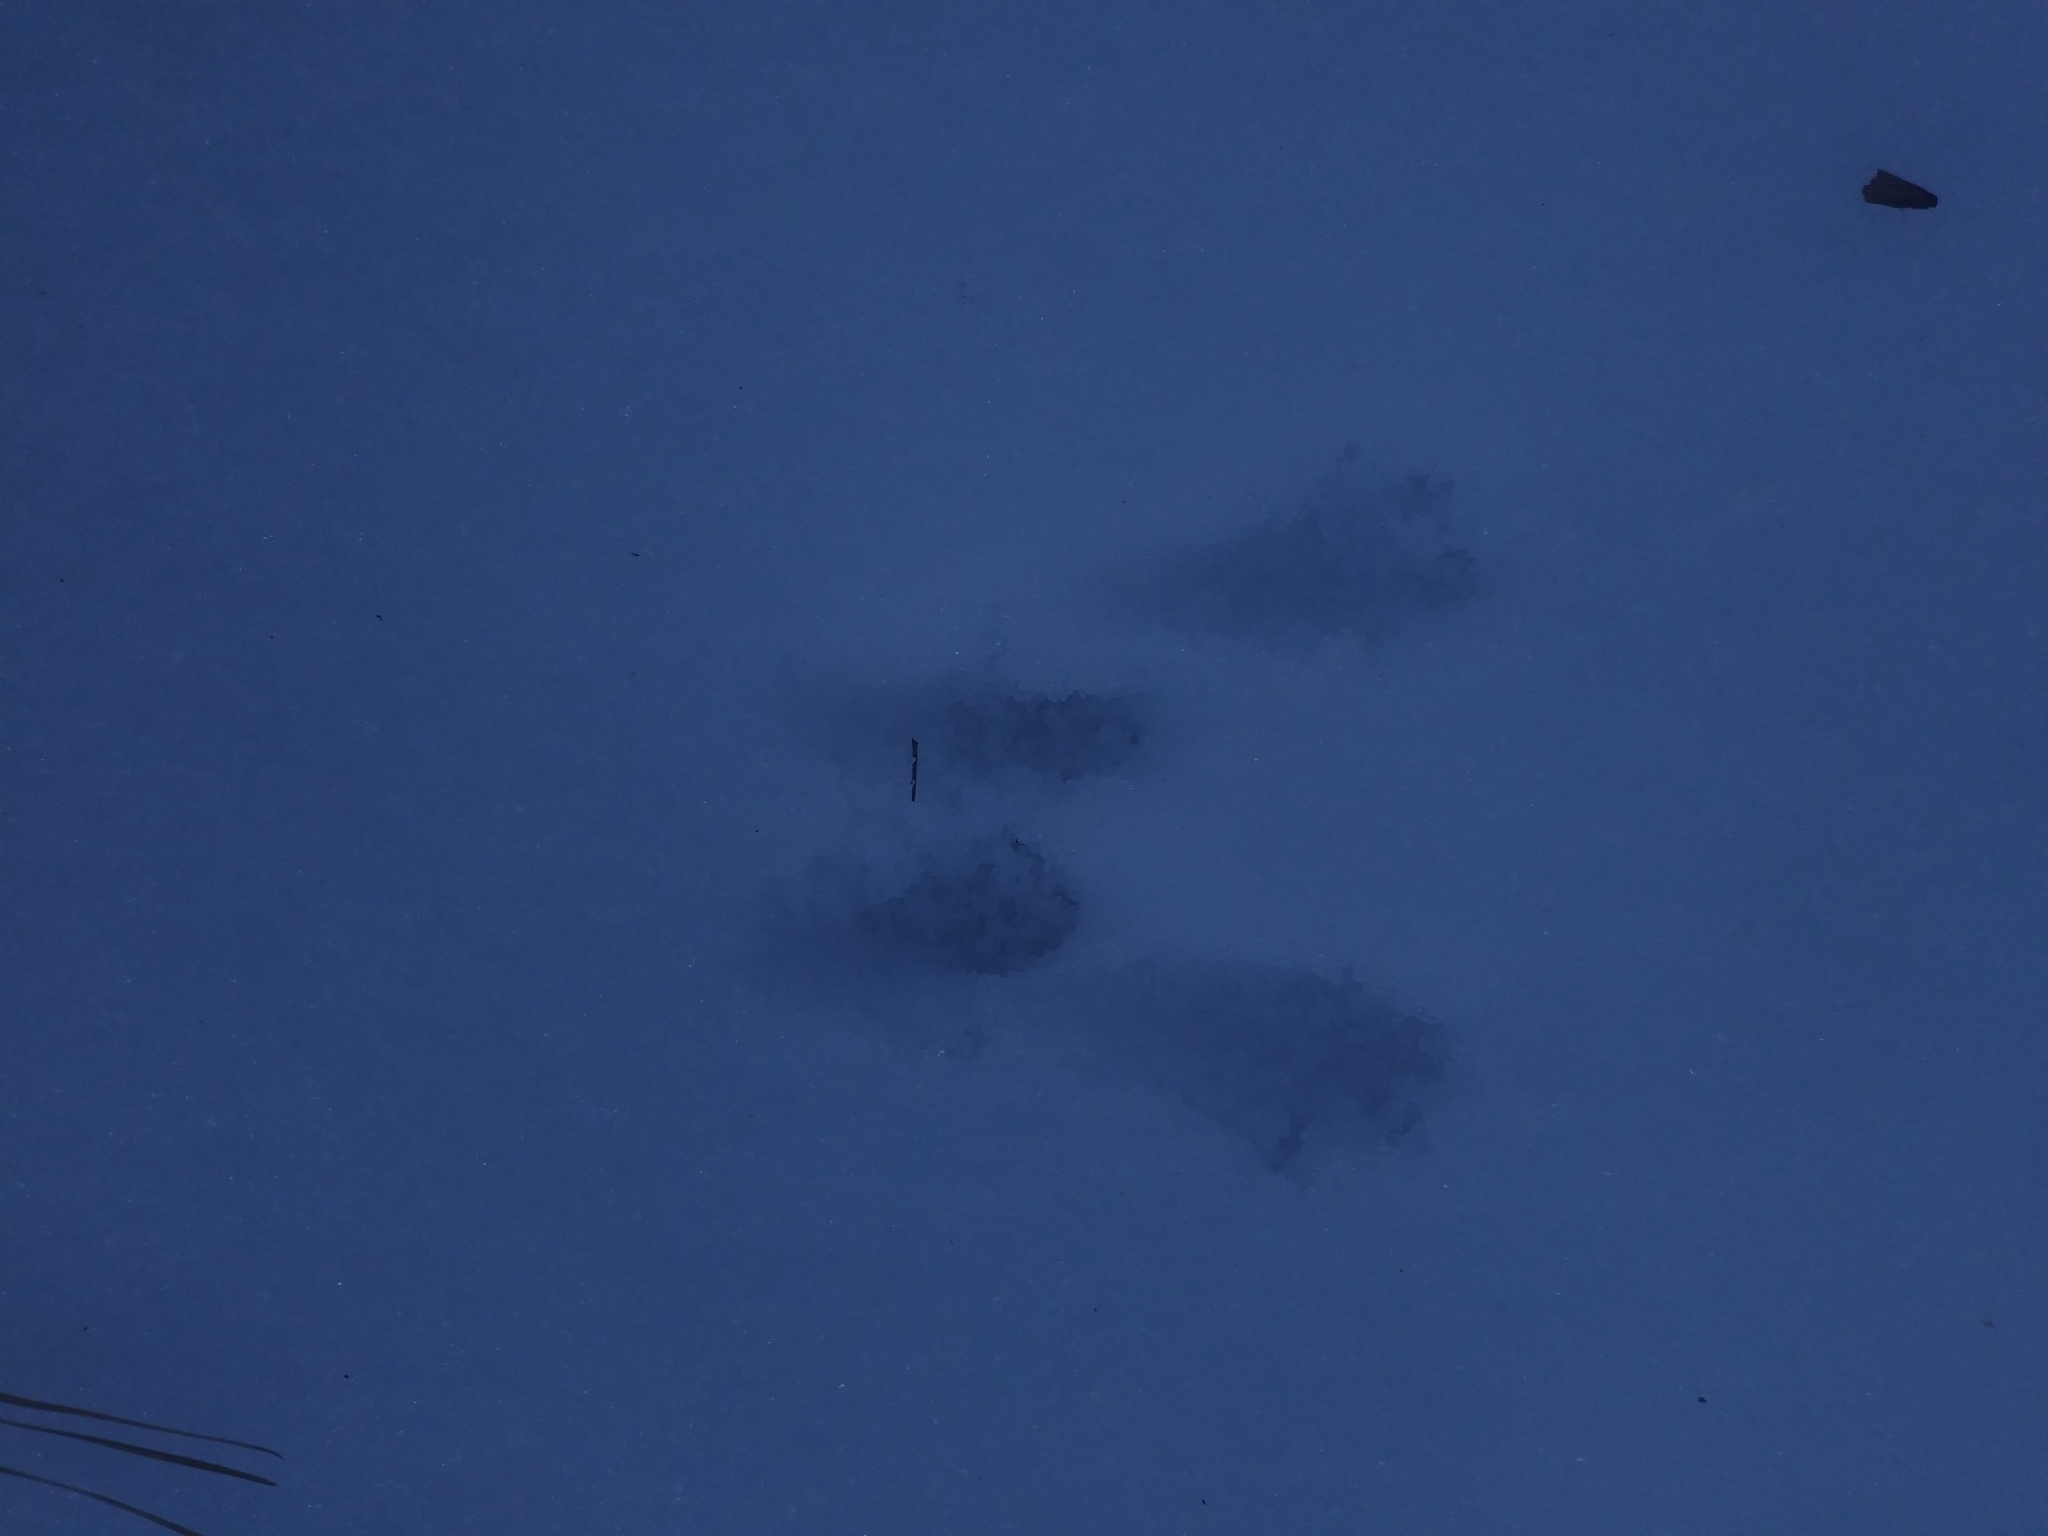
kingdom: Animalia
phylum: Chordata
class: Mammalia
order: Lagomorpha
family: Leporidae
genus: Sylvilagus
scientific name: Sylvilagus floridanus
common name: Eastern cottontail
